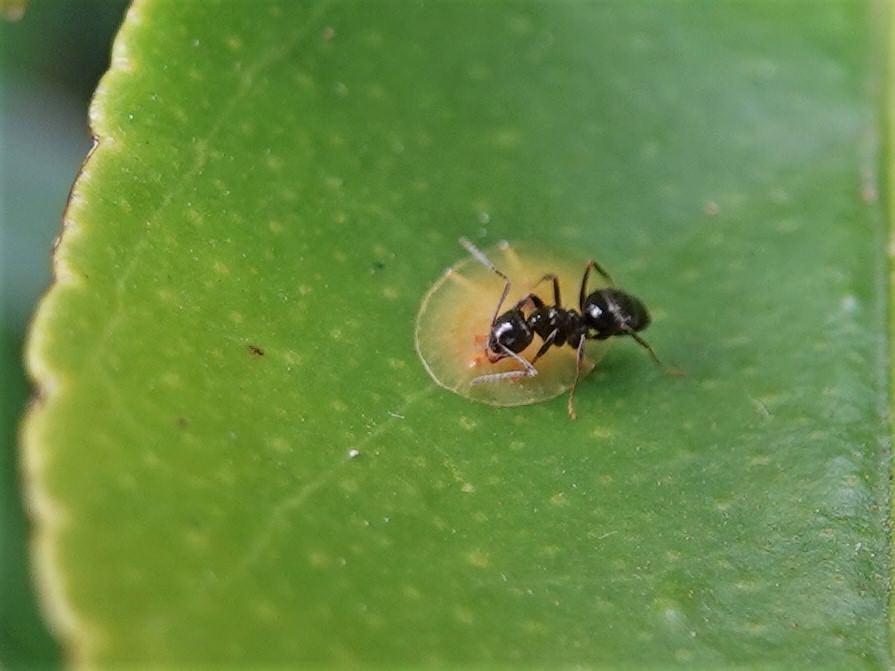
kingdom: Animalia
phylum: Arthropoda
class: Insecta
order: Hymenoptera
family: Formicidae
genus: Technomyrmex
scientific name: Technomyrmex jocosus
